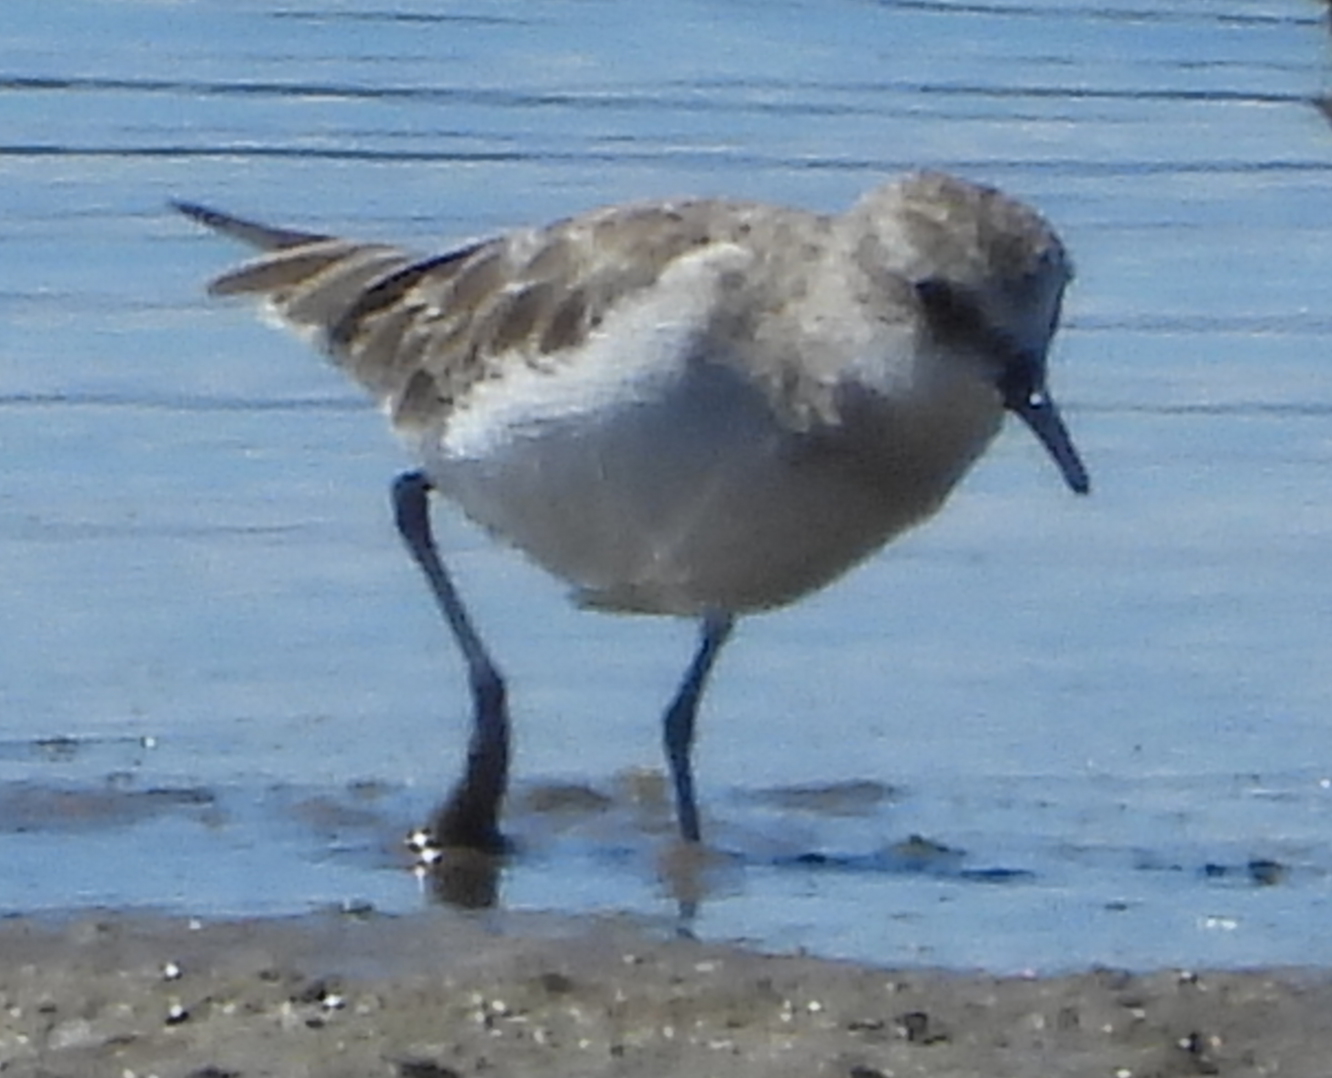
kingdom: Animalia
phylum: Chordata
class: Aves
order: Charadriiformes
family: Scolopacidae
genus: Calidris
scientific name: Calidris minuta
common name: Little stint
